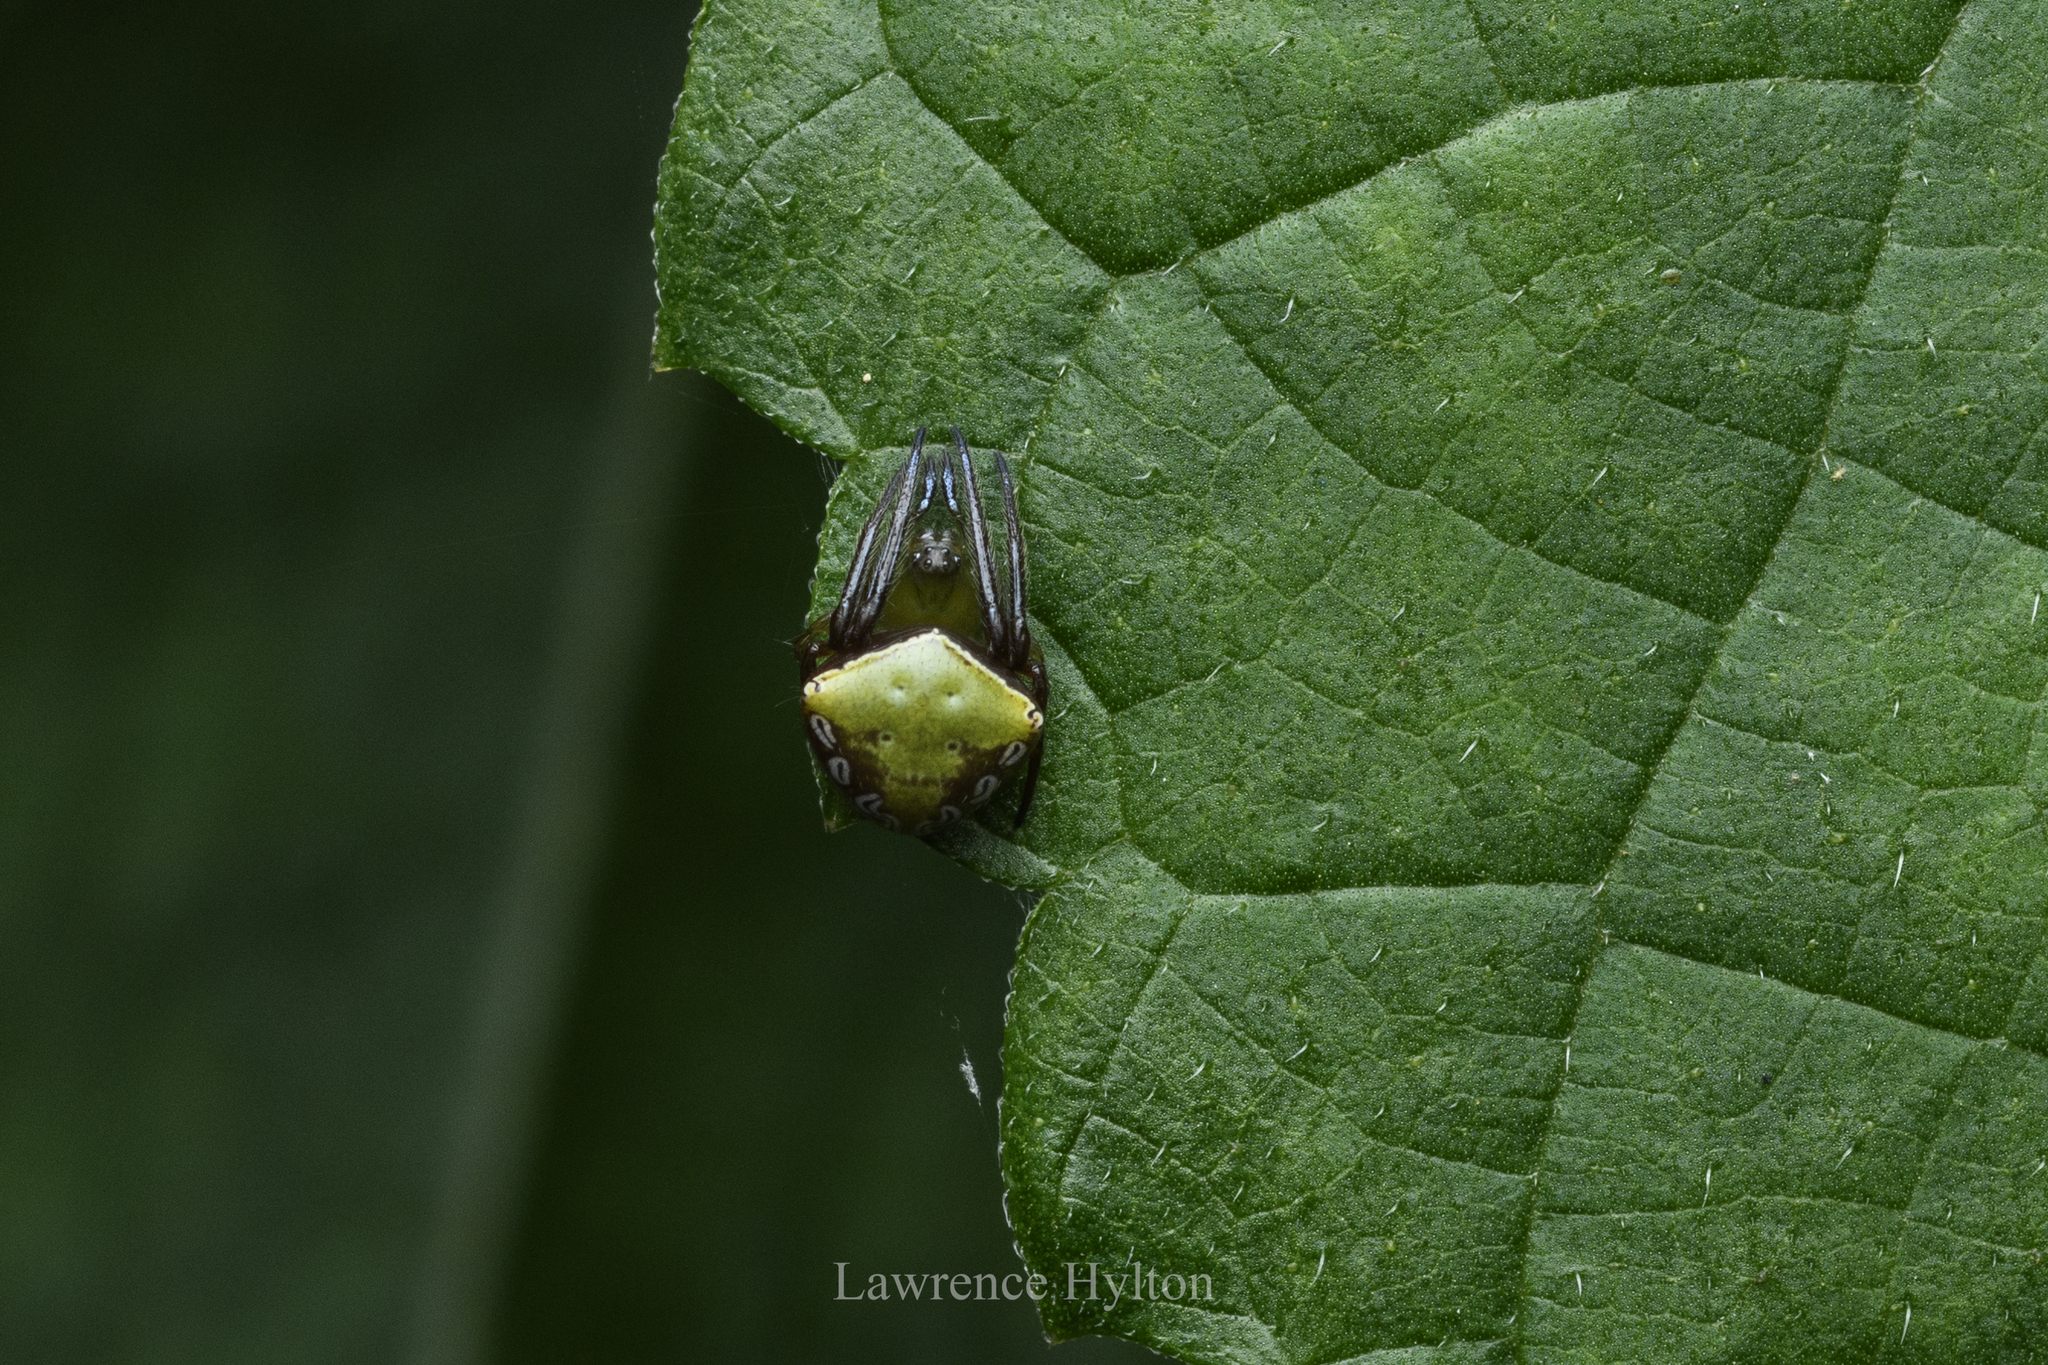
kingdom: Animalia
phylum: Arthropoda
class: Arachnida
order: Araneae
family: Araneidae
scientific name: Araneidae
